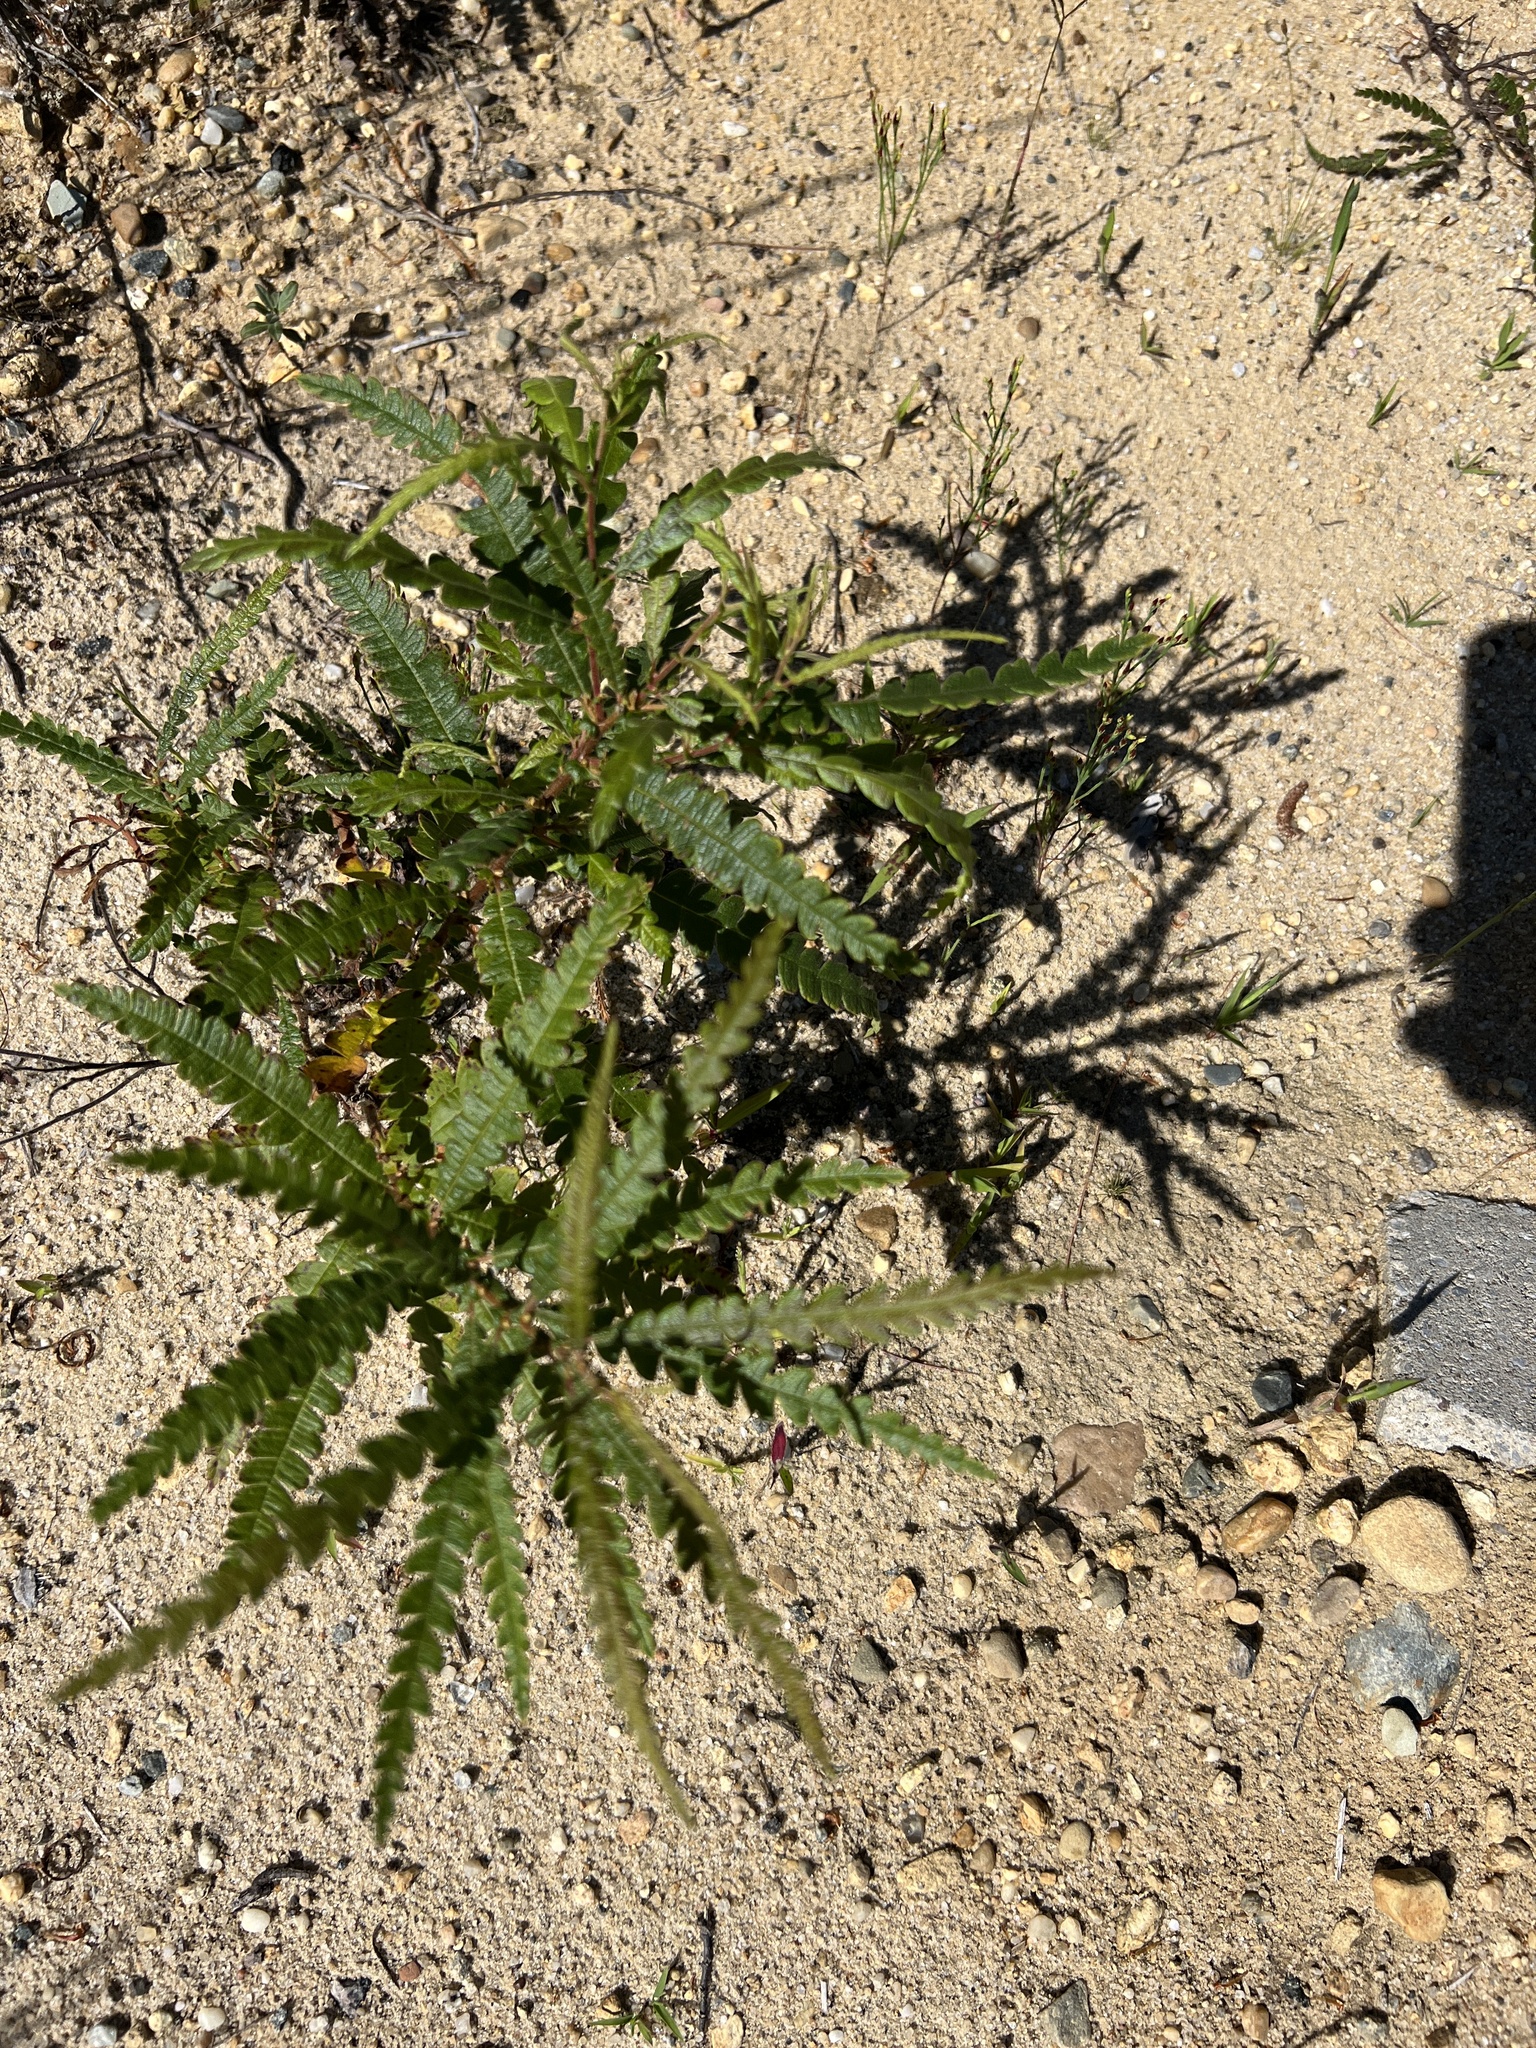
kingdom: Plantae
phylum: Tracheophyta
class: Magnoliopsida
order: Fagales
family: Myricaceae
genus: Comptonia
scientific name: Comptonia peregrina
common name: Sweet-fern
